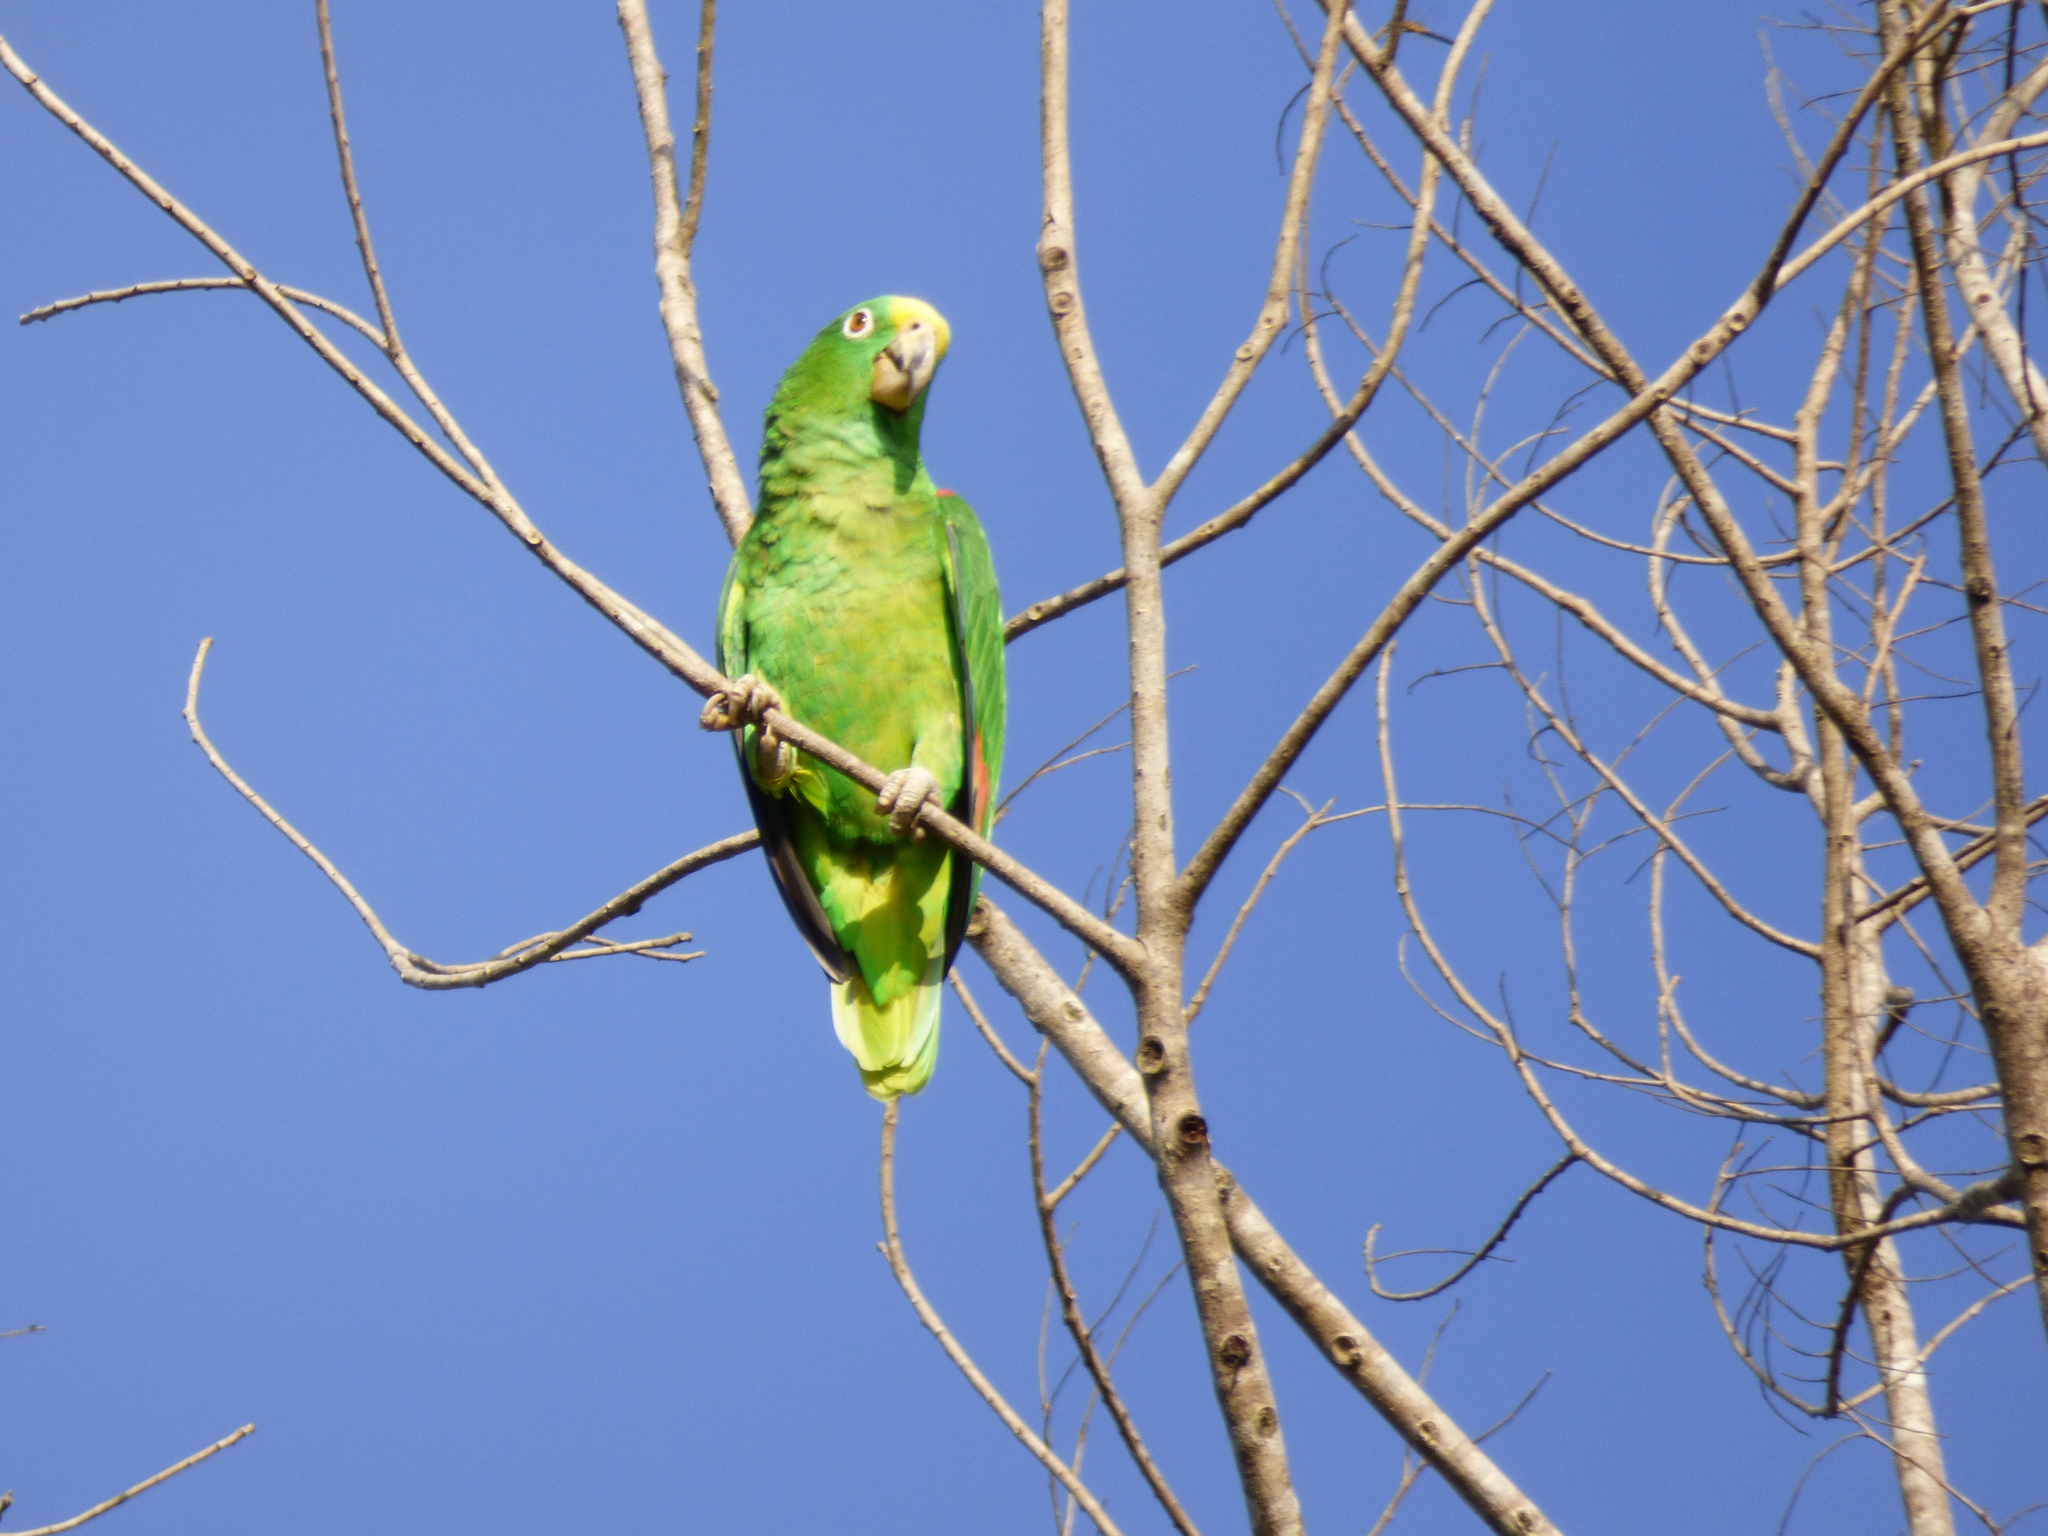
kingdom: Animalia
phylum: Chordata
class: Aves
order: Psittaciformes
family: Psittacidae
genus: Amazona
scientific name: Amazona ochrocephala
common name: Yellow-crowned amazon
